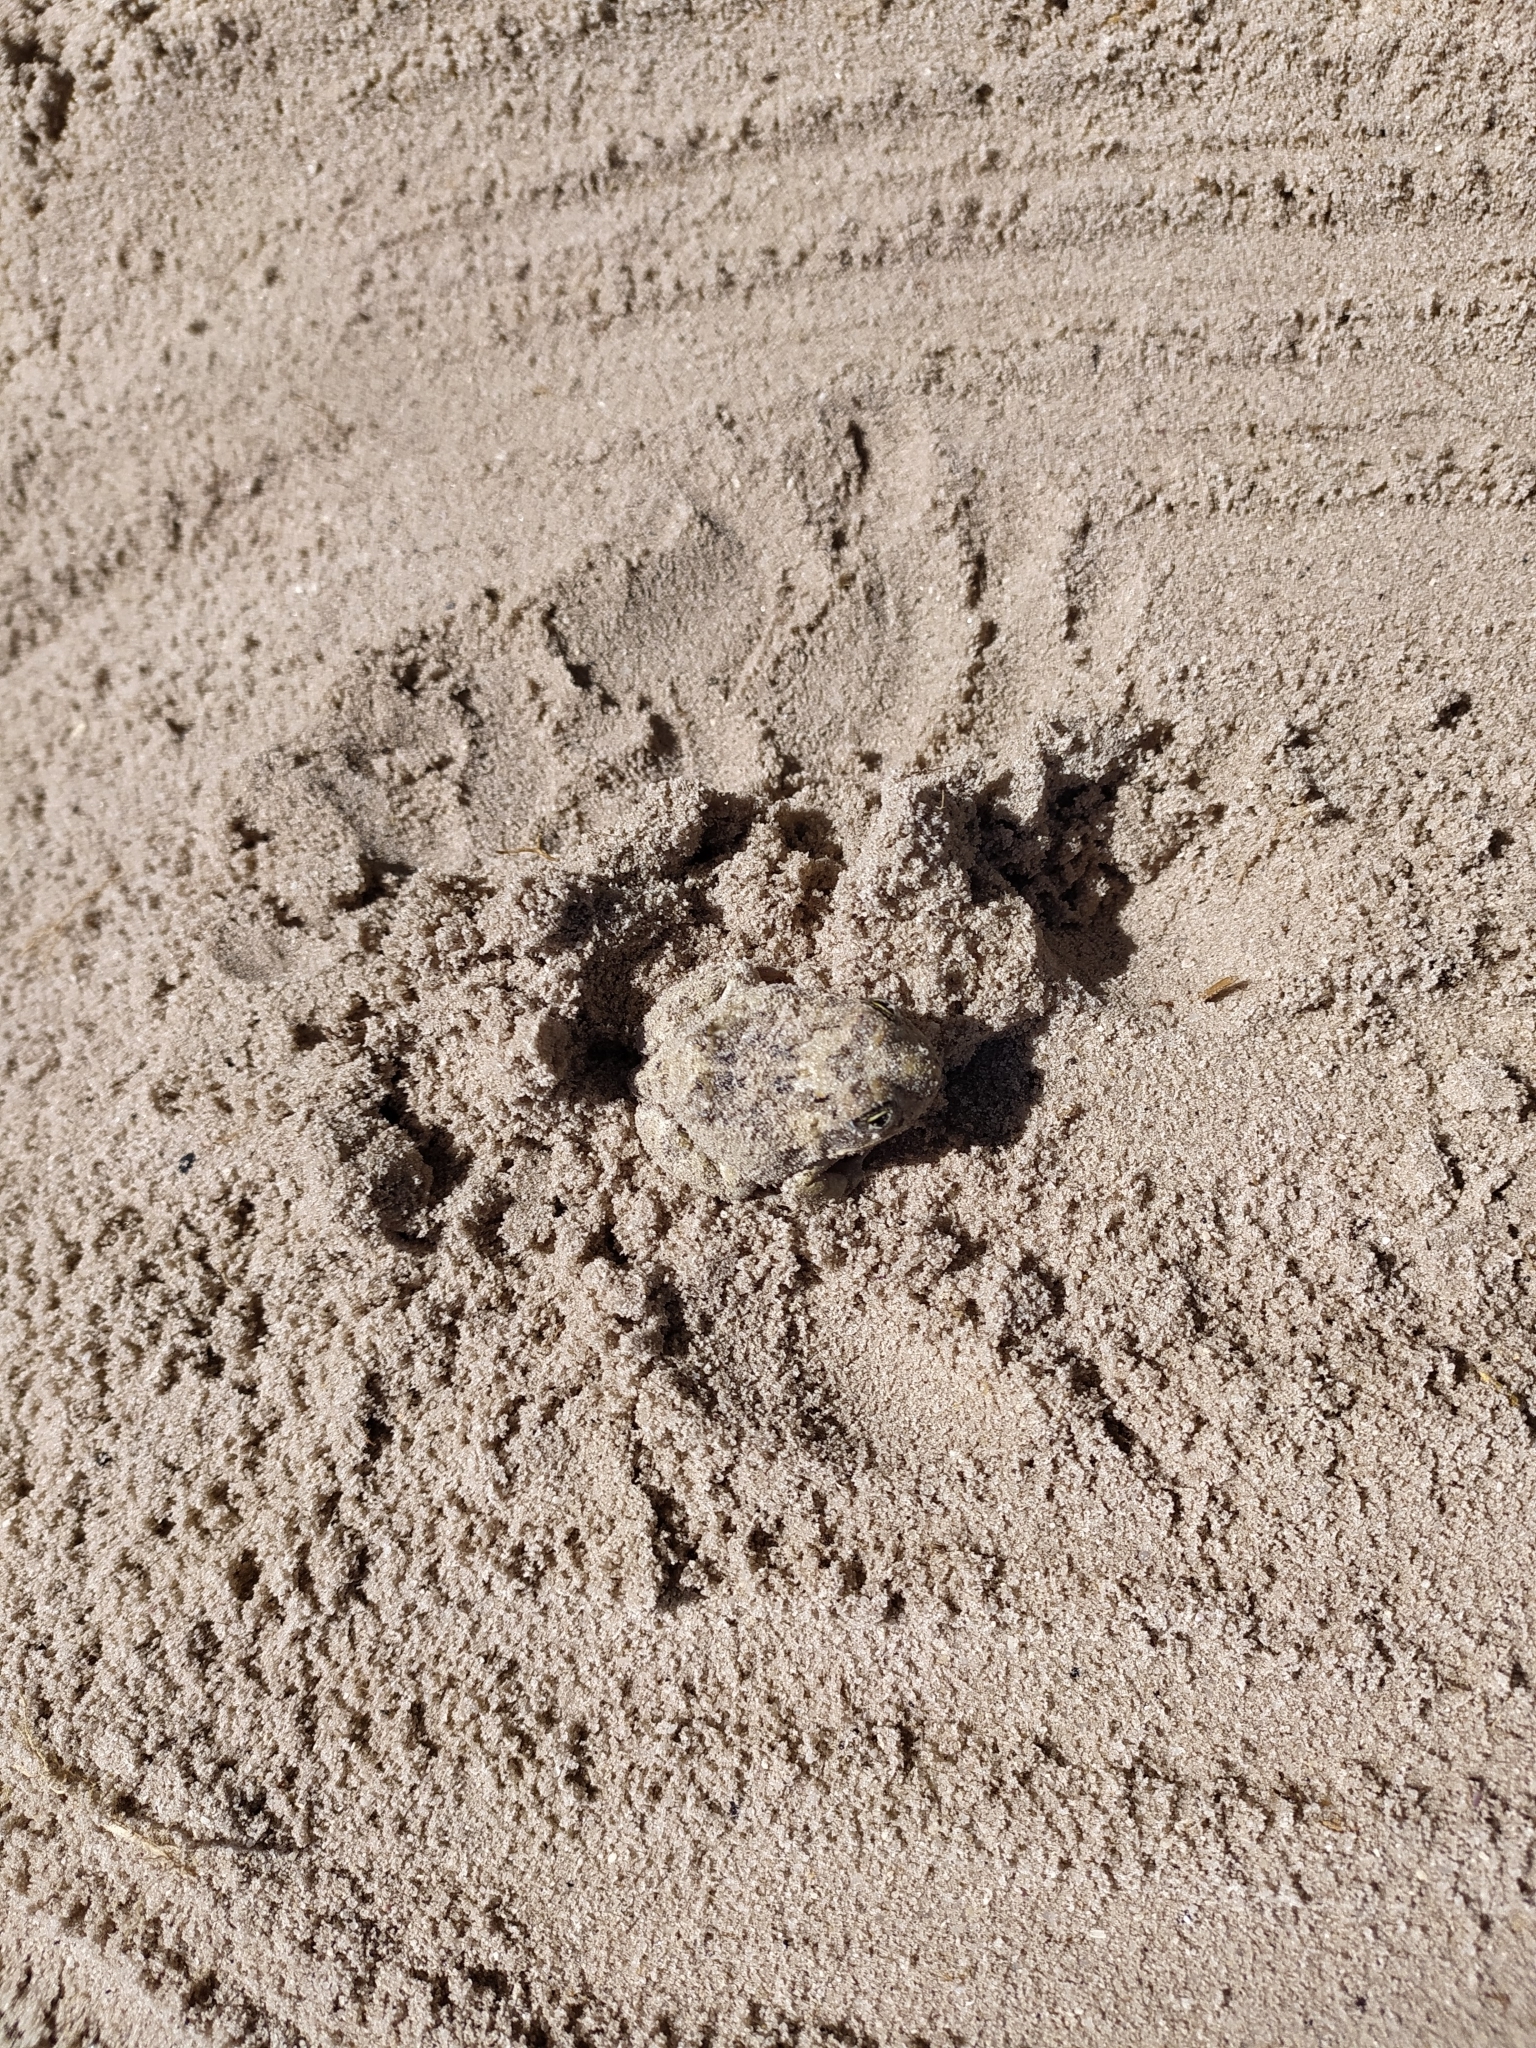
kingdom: Animalia
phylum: Chordata
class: Amphibia
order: Anura
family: Pyxicephalidae
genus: Tomopterna
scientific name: Tomopterna delalandii
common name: Delalande's burrowing bullfrog
